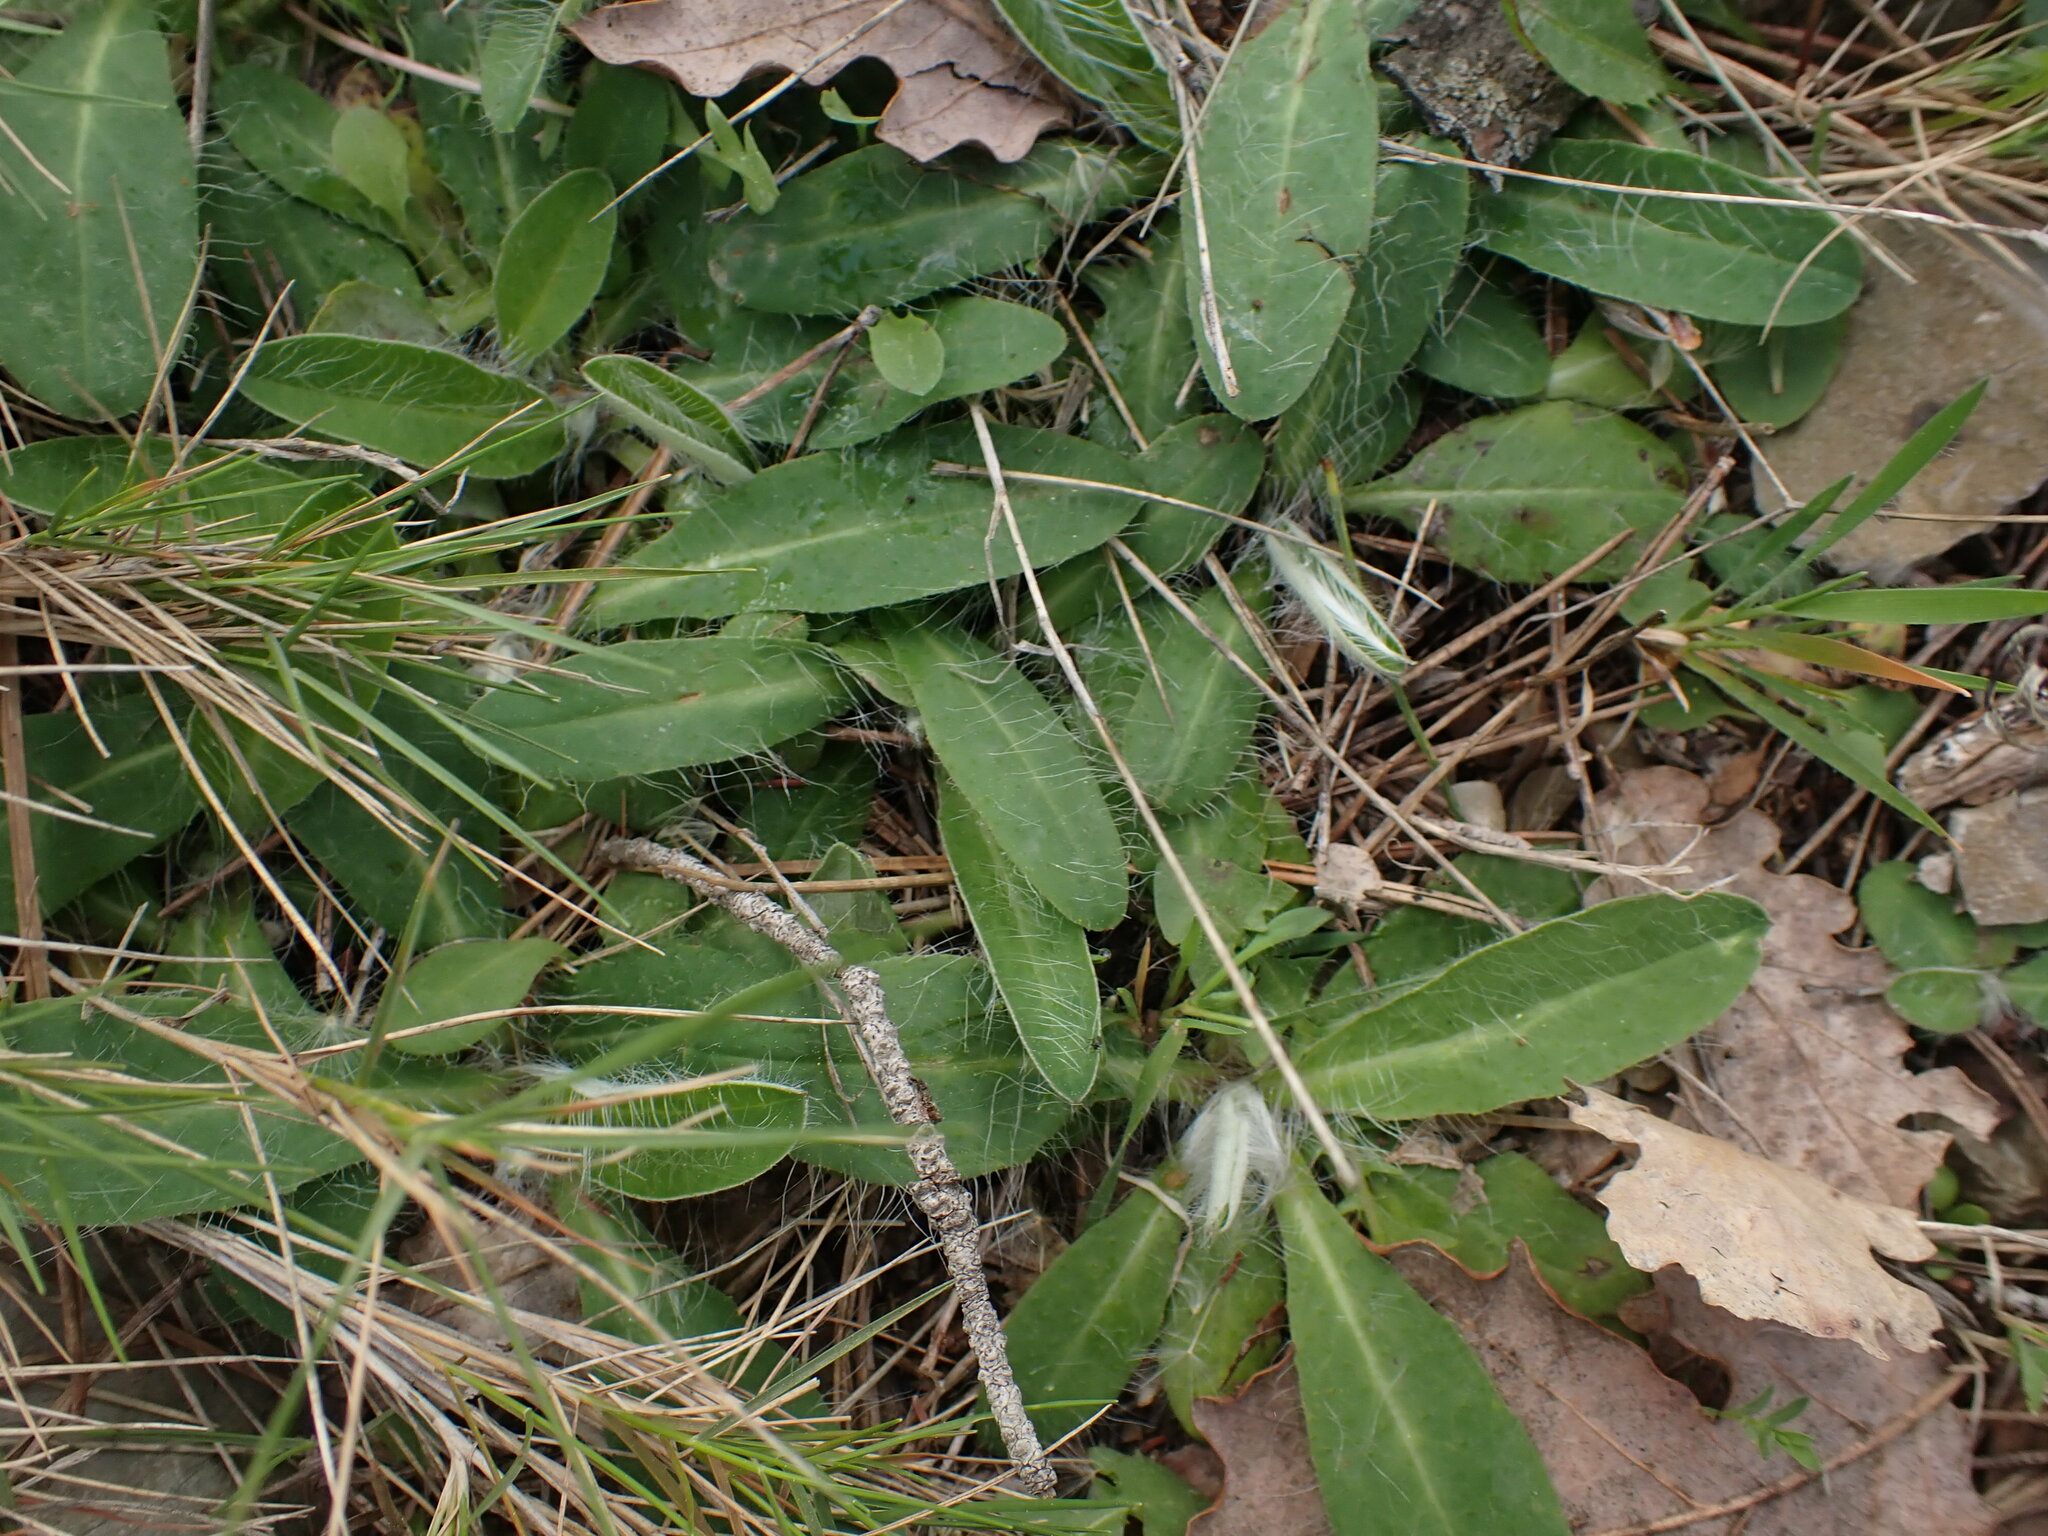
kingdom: Plantae
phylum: Tracheophyta
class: Magnoliopsida
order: Asterales
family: Asteraceae
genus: Pilosella
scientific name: Pilosella officinarum
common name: Mouse-ear hawkweed
